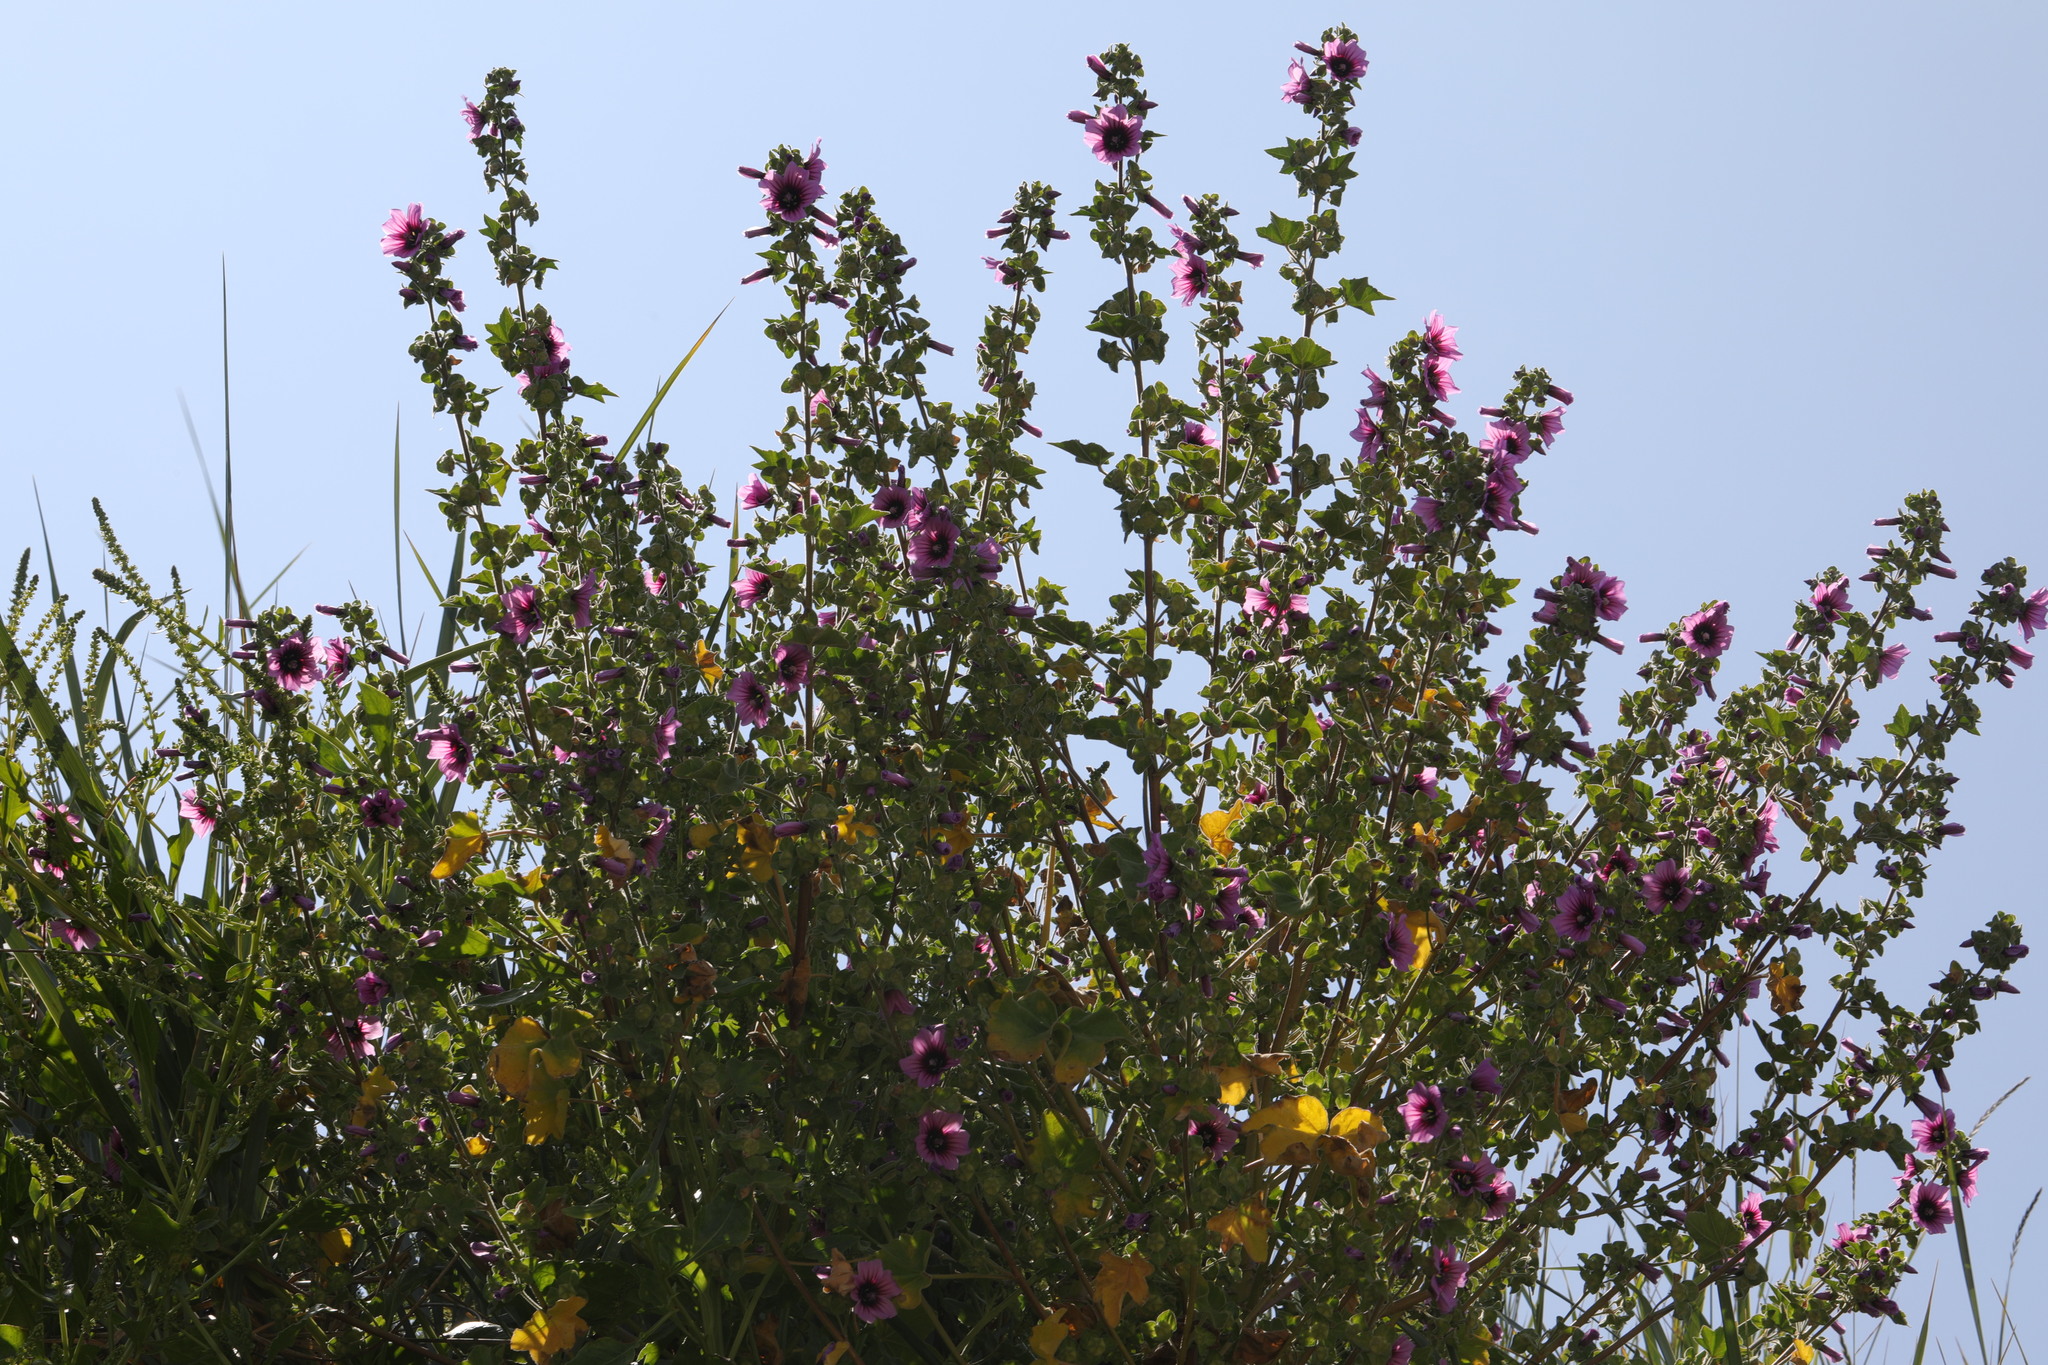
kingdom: Plantae
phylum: Tracheophyta
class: Magnoliopsida
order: Malvales
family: Malvaceae
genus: Malva
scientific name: Malva arborea
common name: Tree mallow
